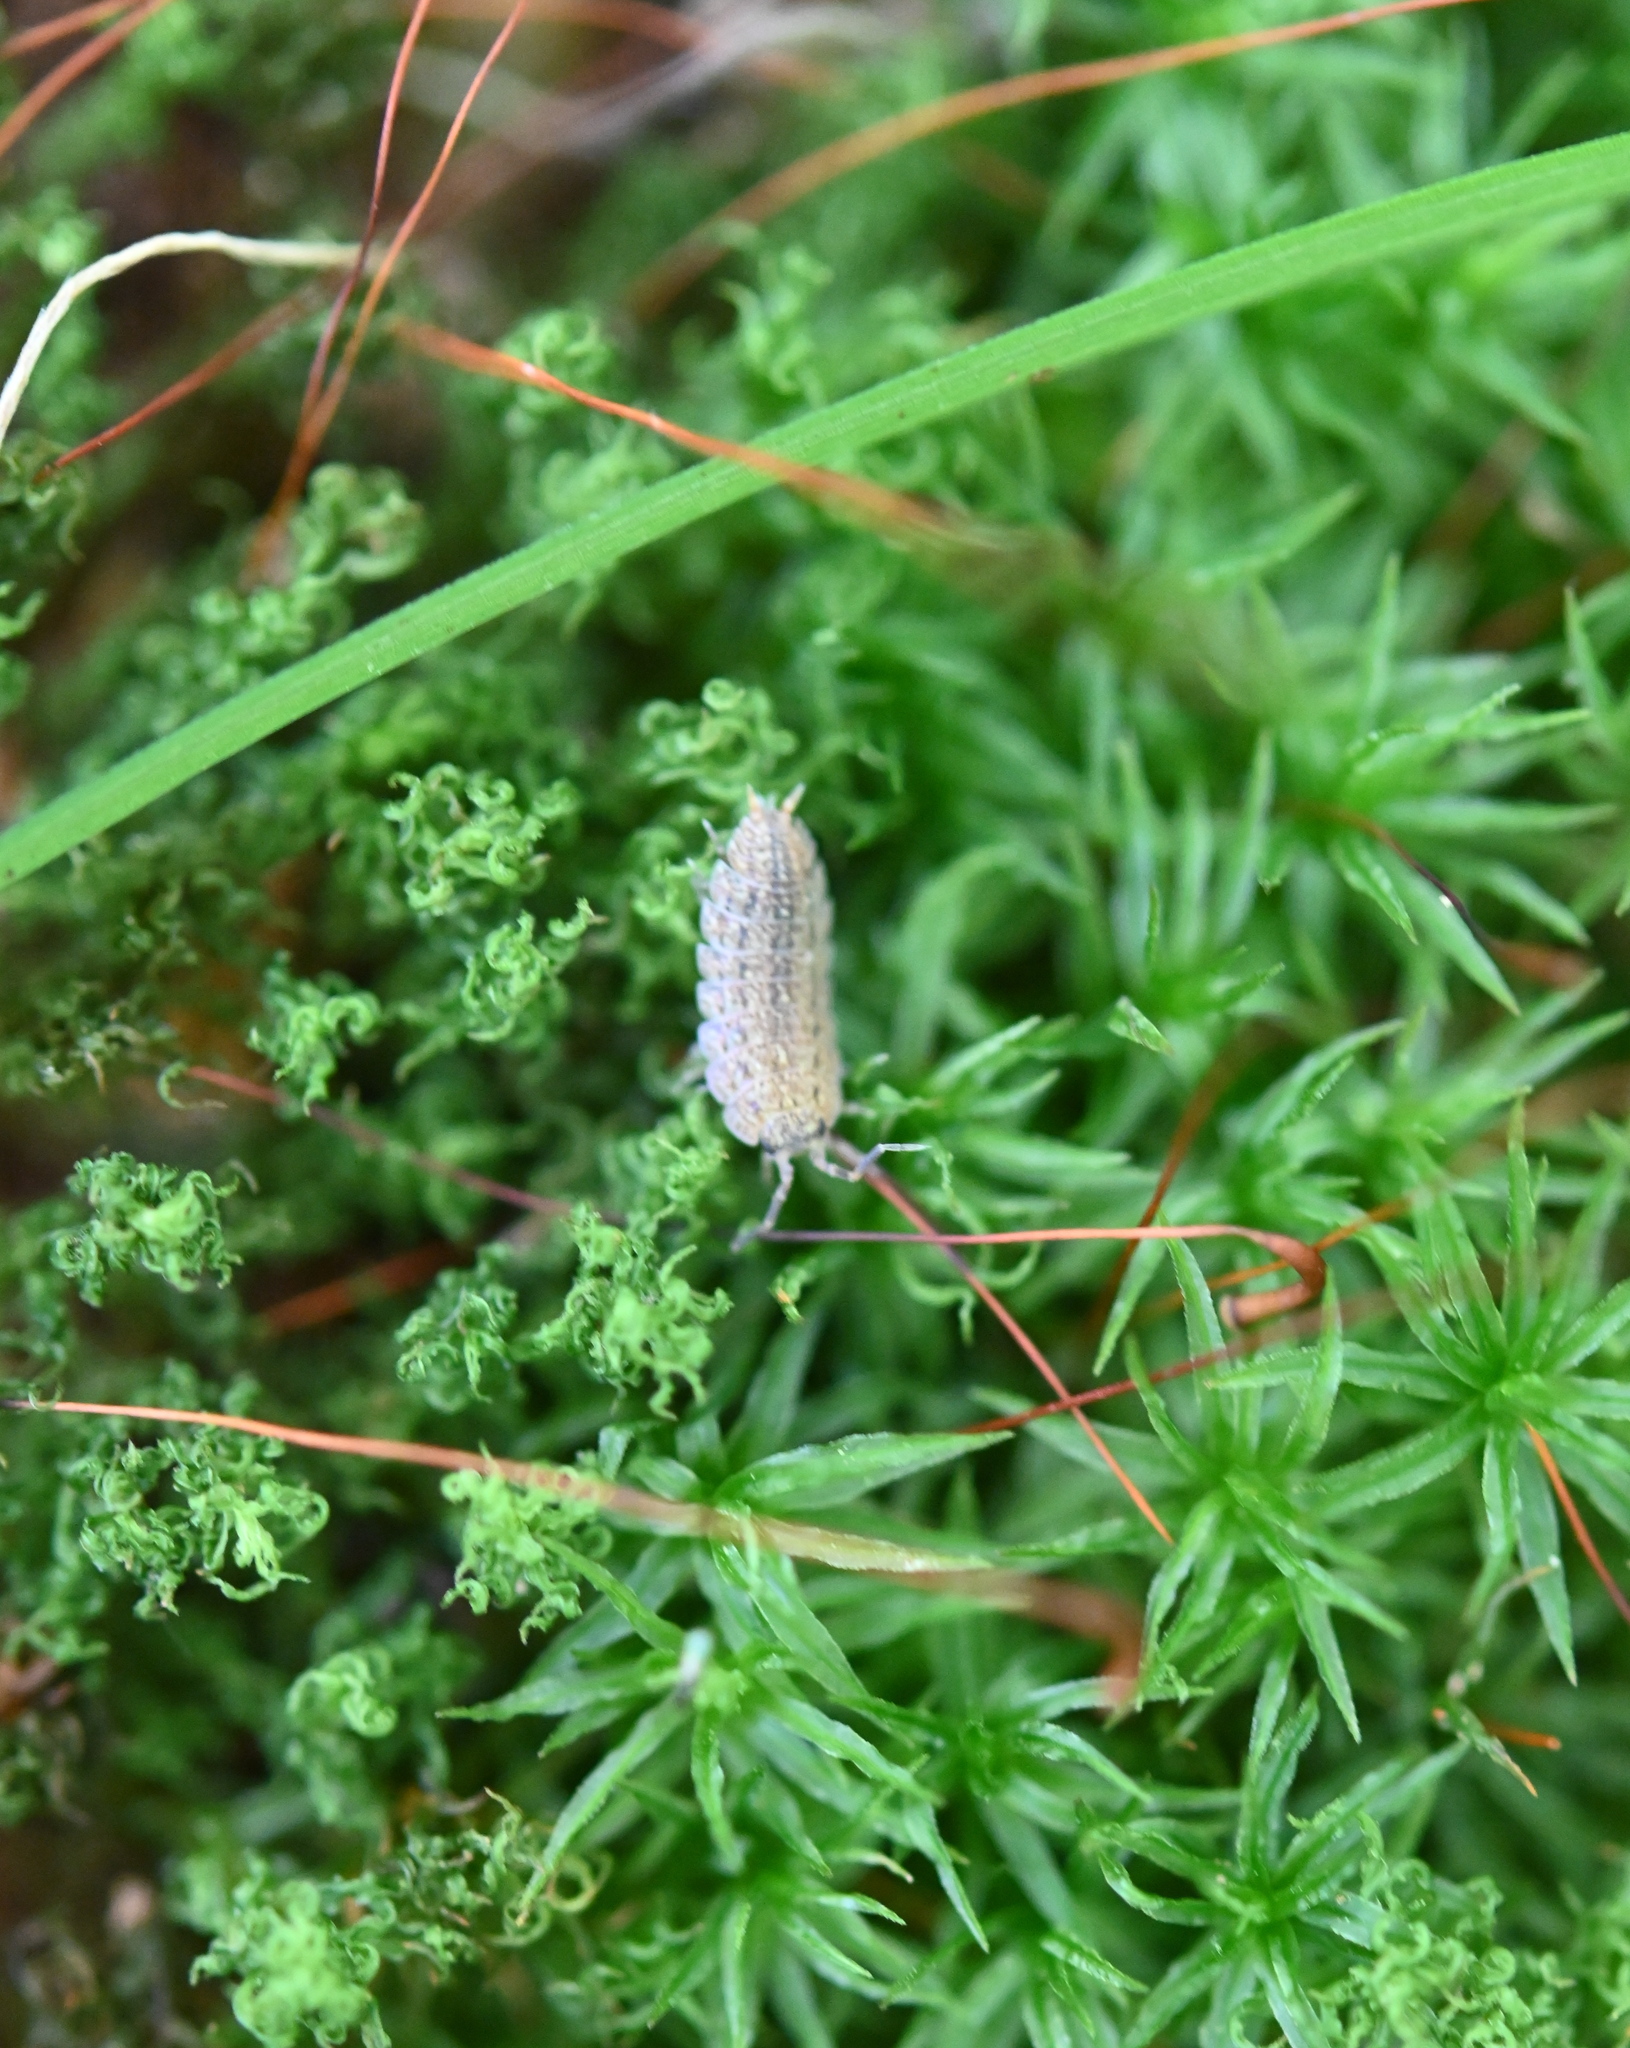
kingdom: Animalia
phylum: Arthropoda
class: Malacostraca
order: Isopoda
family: Porcellionidae
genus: Porcellionides
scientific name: Porcellionides virgatus
